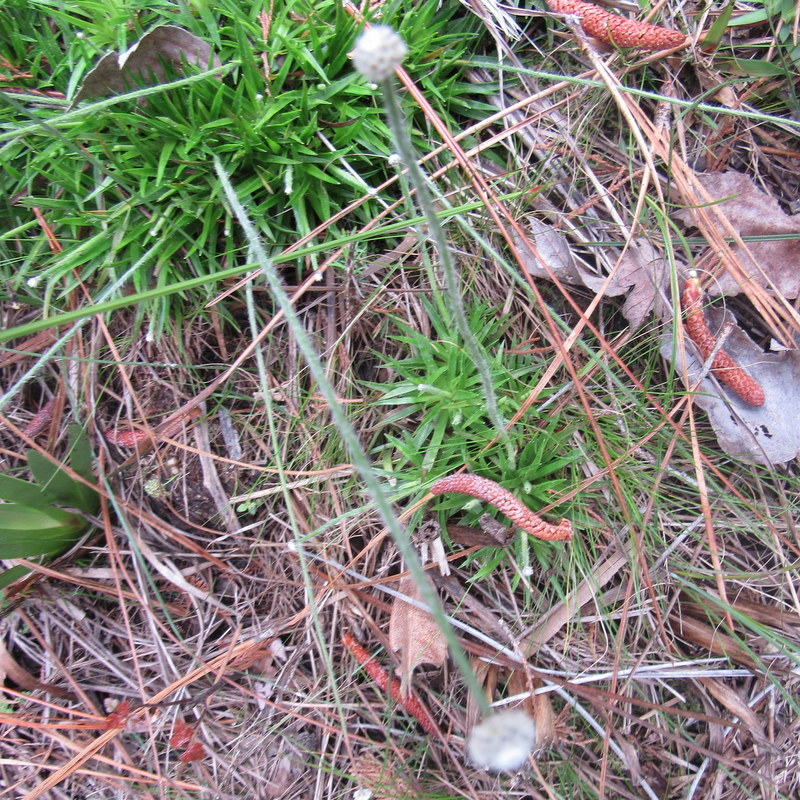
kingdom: Plantae
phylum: Tracheophyta
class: Liliopsida
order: Poales
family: Eriocaulaceae
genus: Paepalanthus
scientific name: Paepalanthus anceps
